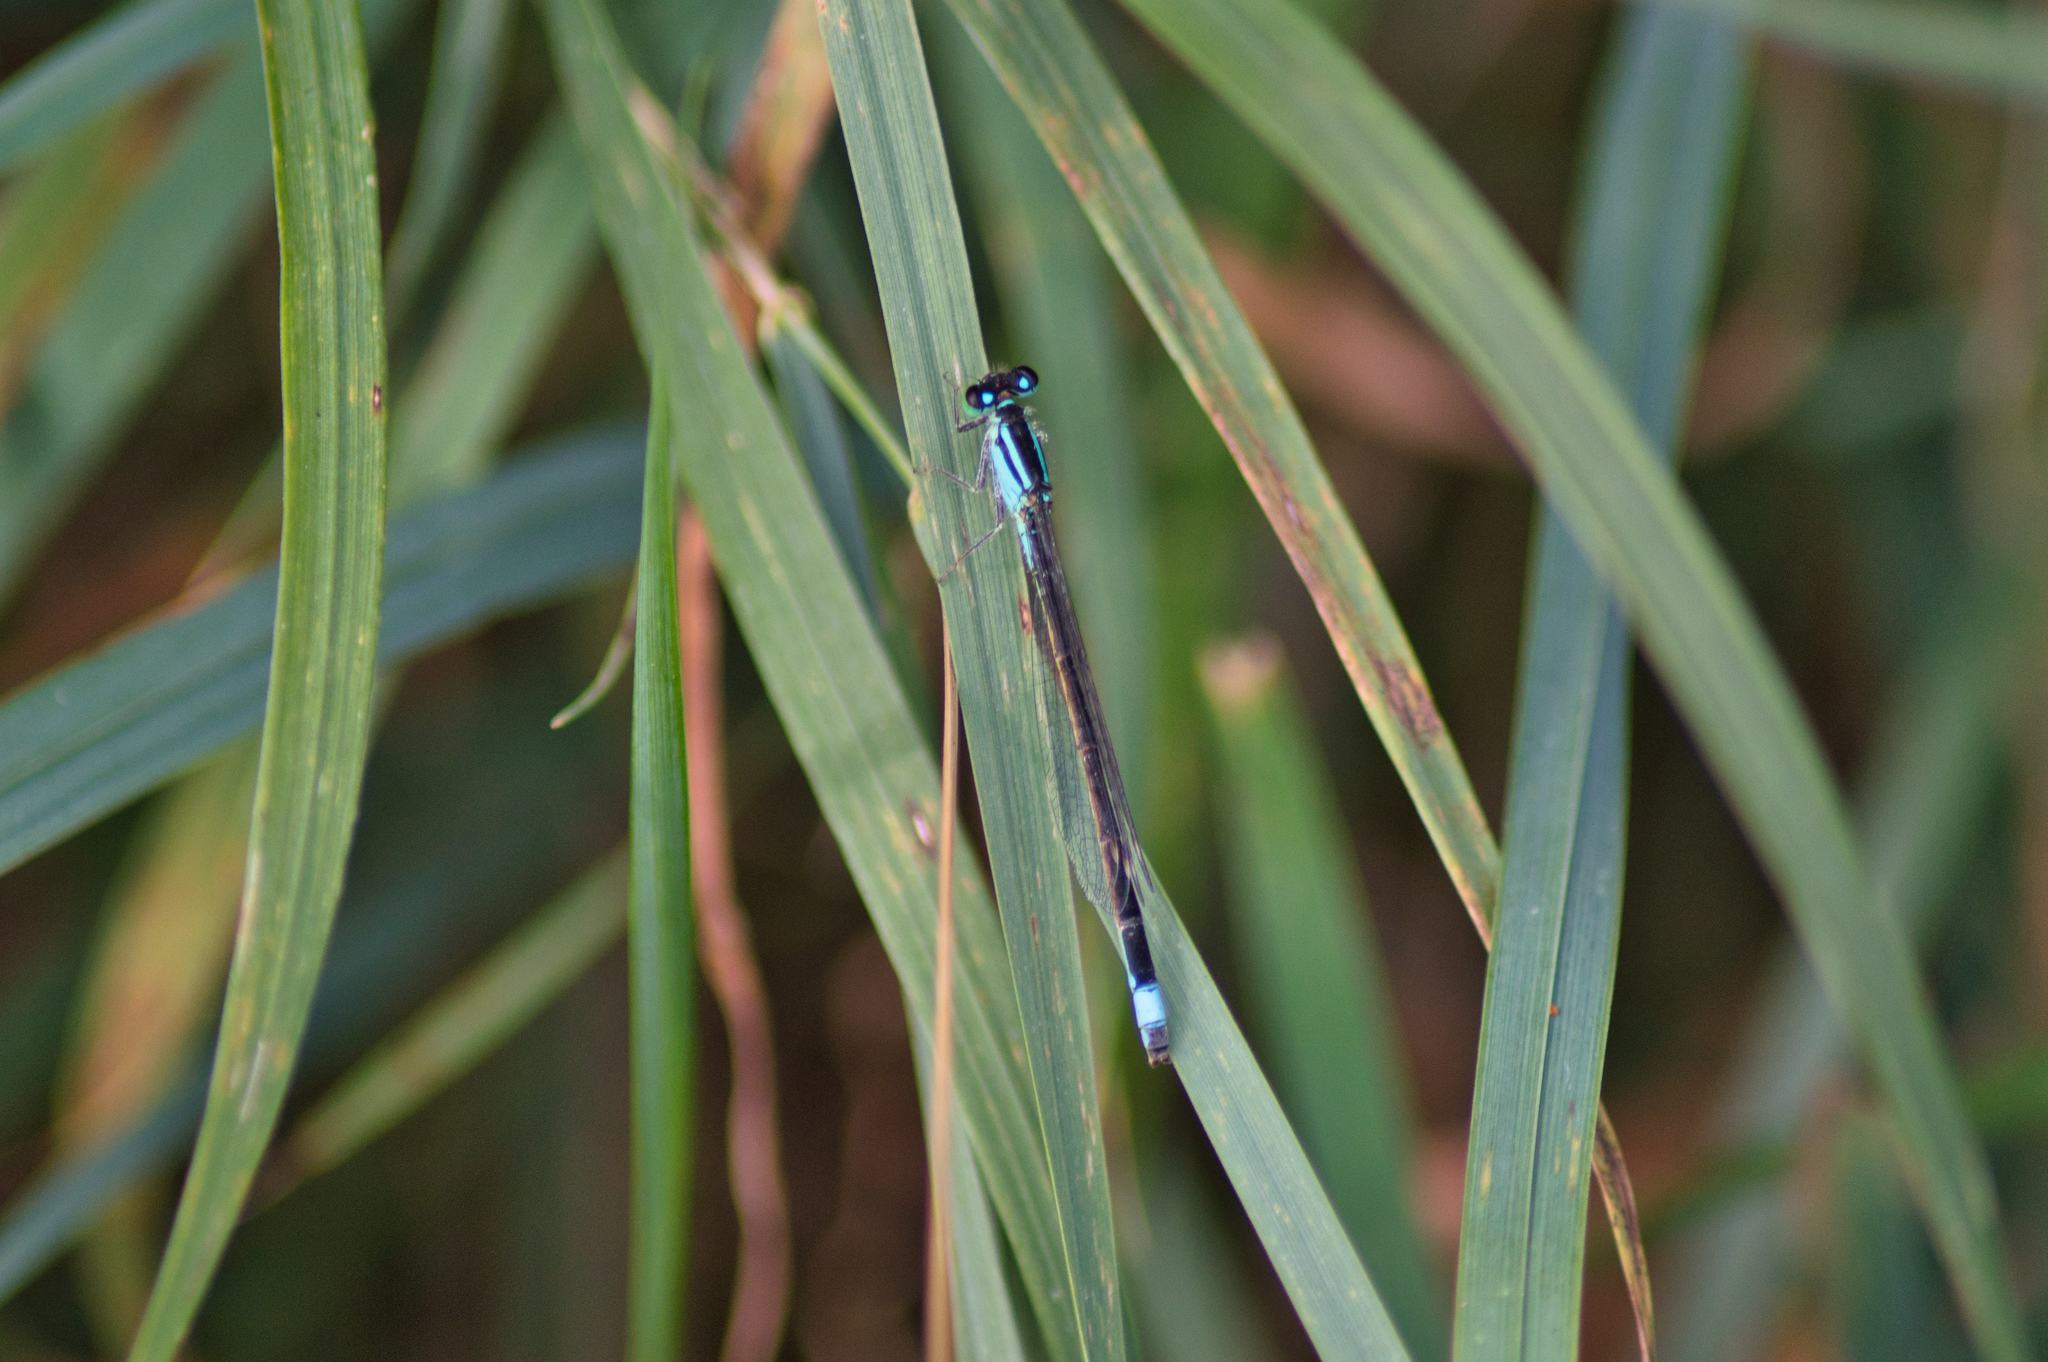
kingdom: Animalia
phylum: Arthropoda
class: Insecta
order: Odonata
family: Coenagrionidae
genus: Ischnura
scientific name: Ischnura elegans
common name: Blue-tailed damselfly
